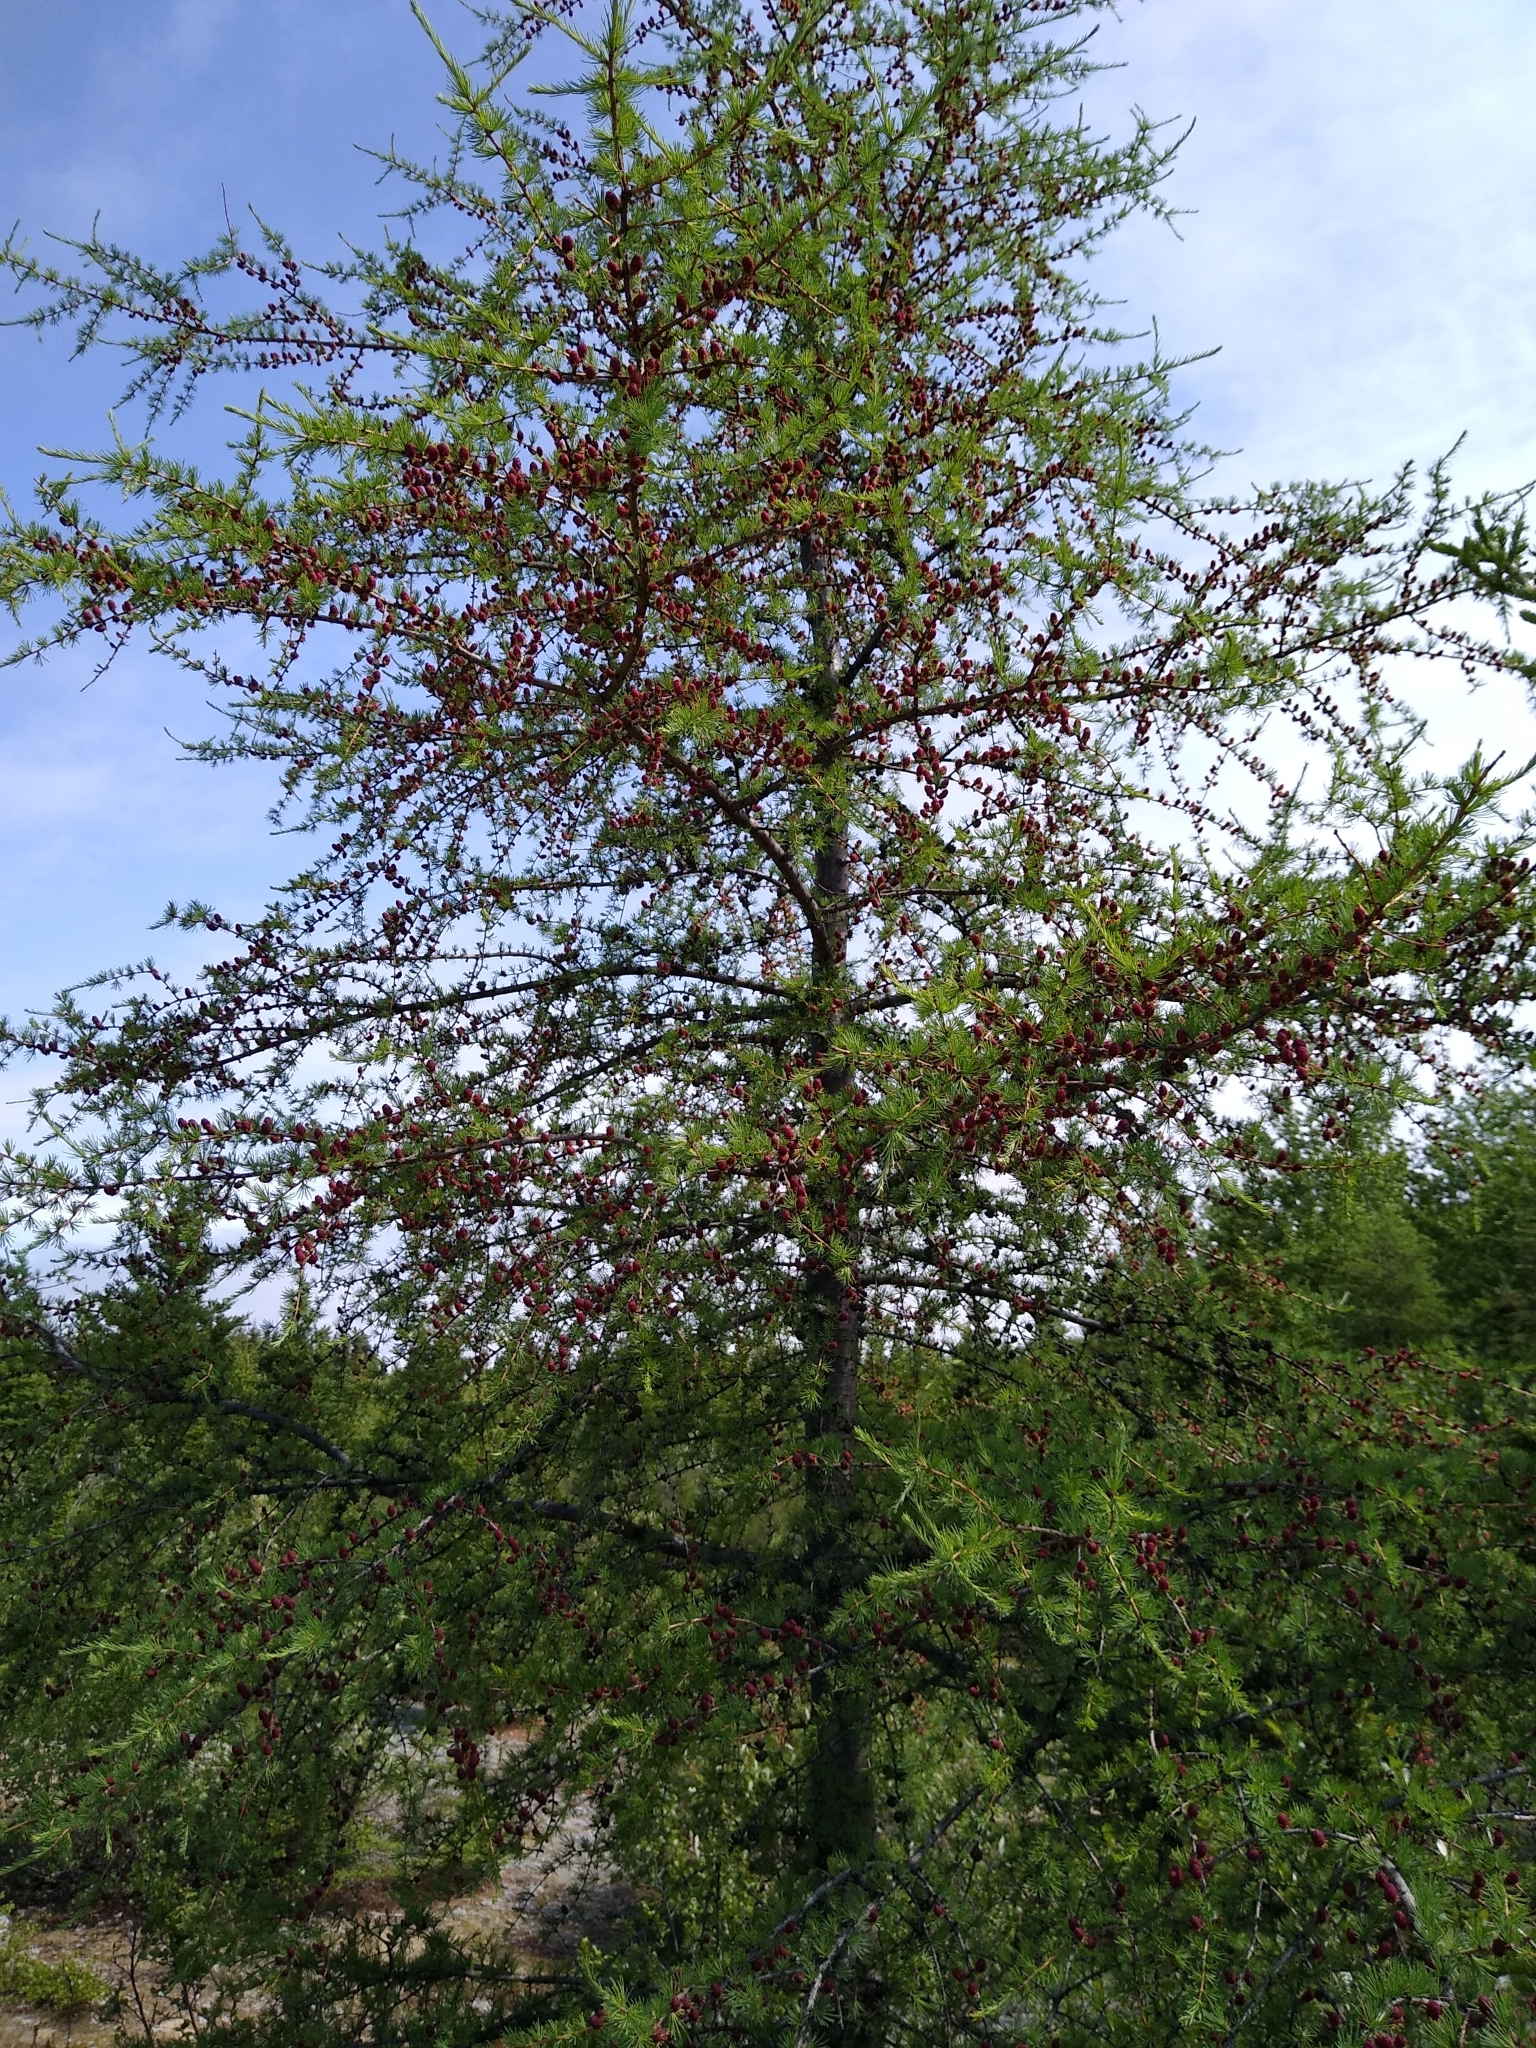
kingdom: Plantae
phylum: Tracheophyta
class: Pinopsida
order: Pinales
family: Pinaceae
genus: Larix
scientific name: Larix laricina
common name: American larch
